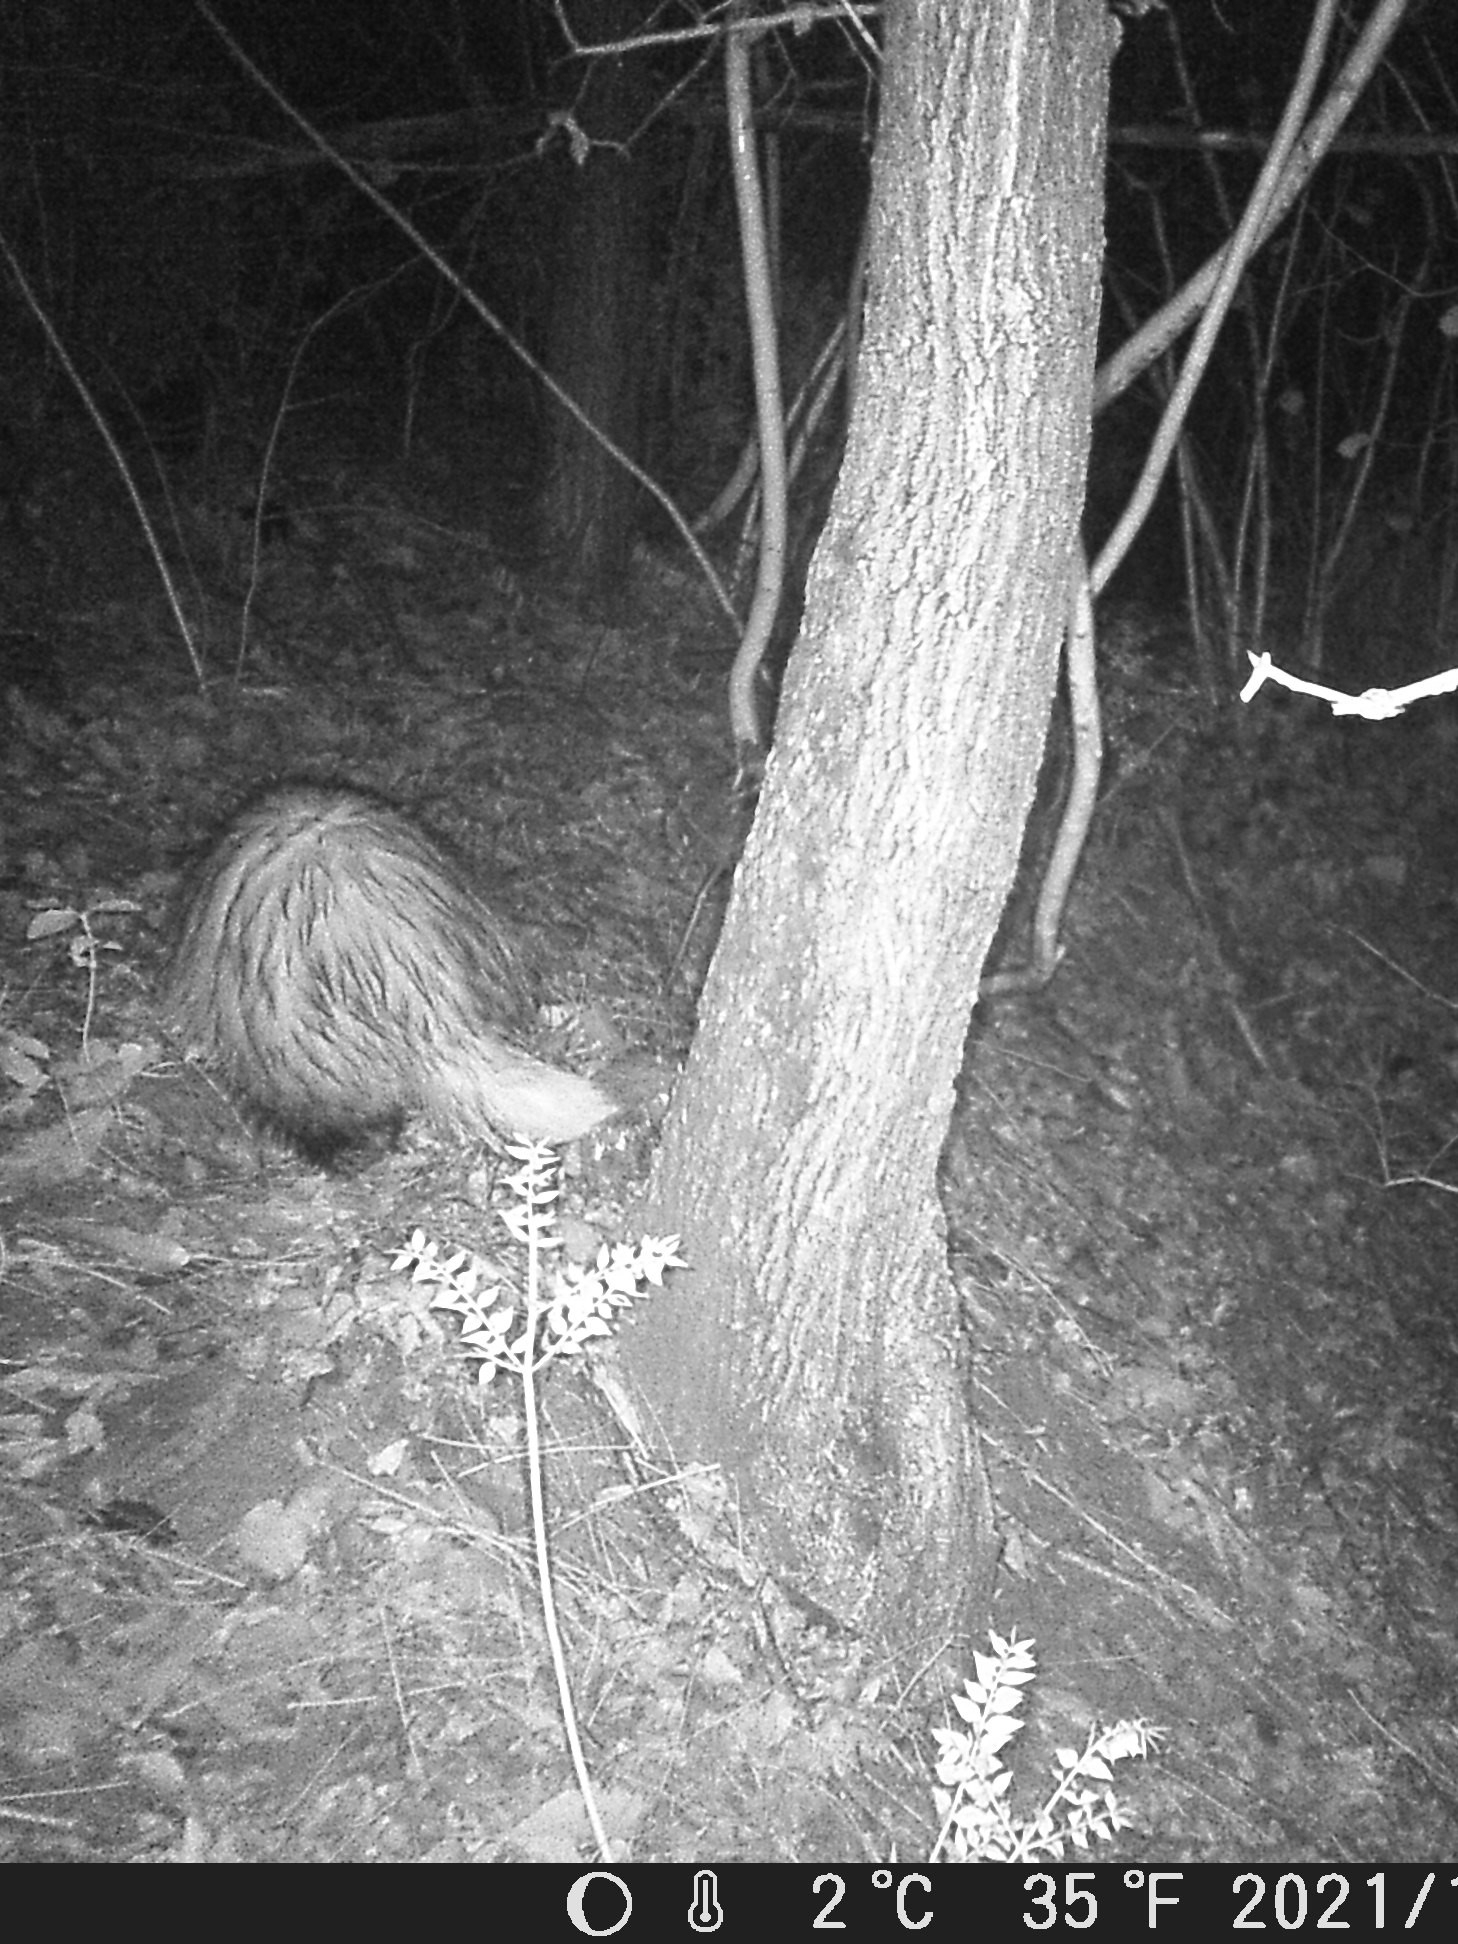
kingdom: Animalia
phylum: Chordata
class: Mammalia
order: Carnivora
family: Mustelidae
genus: Meles
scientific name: Meles meles
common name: Eurasian badger
